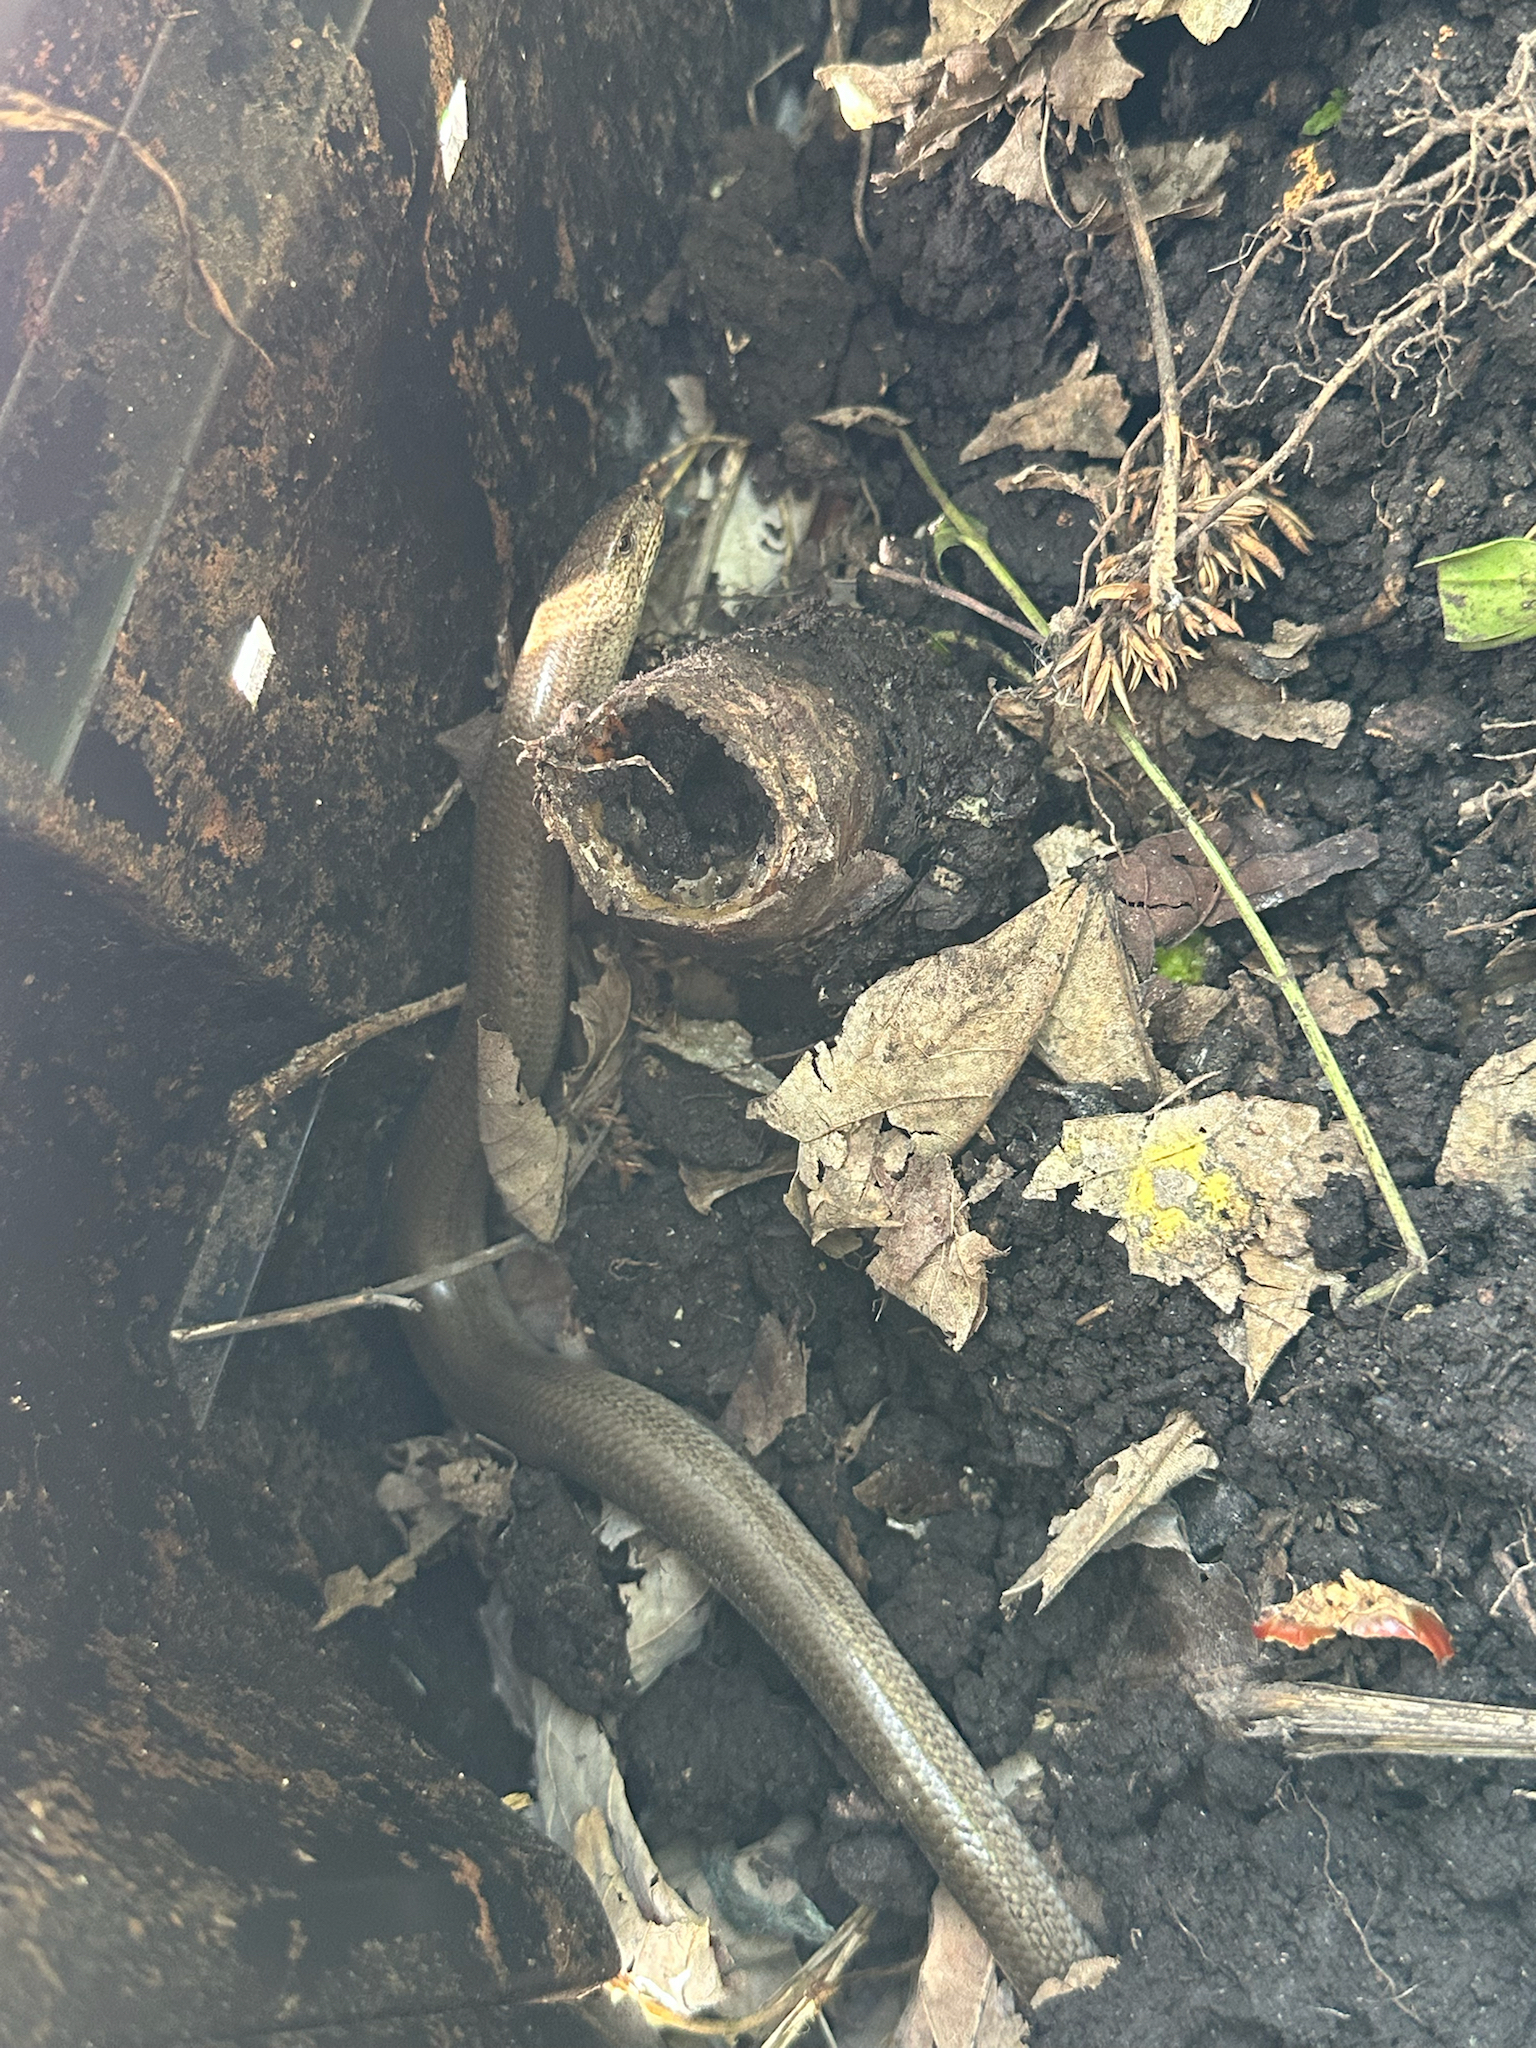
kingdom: Animalia
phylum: Chordata
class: Squamata
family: Anguidae
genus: Anguis
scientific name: Anguis fragilis
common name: Slow worm
